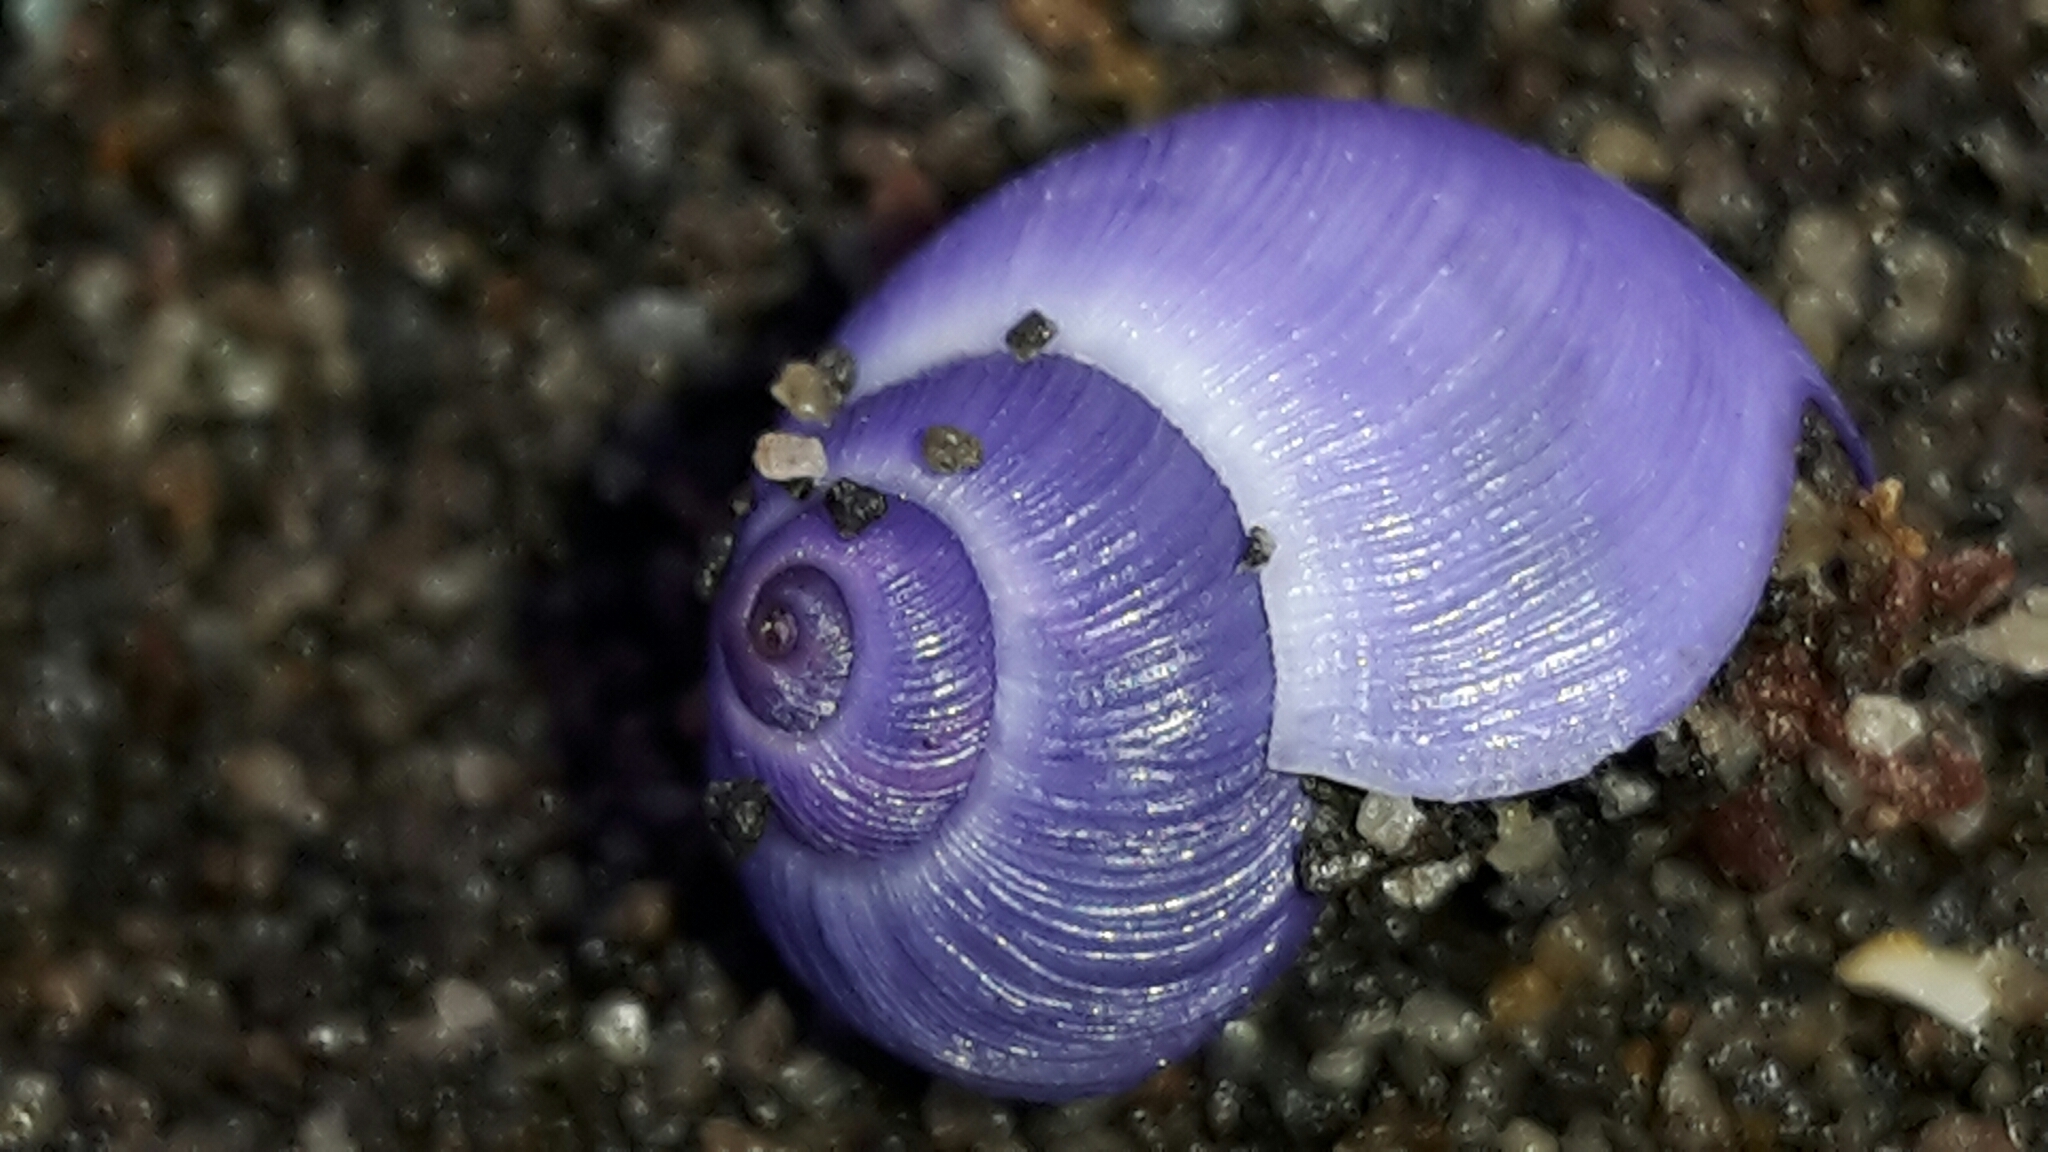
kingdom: Animalia
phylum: Mollusca
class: Gastropoda
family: Epitoniidae
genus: Janthina
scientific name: Janthina exigua
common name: Dwarf janthina
